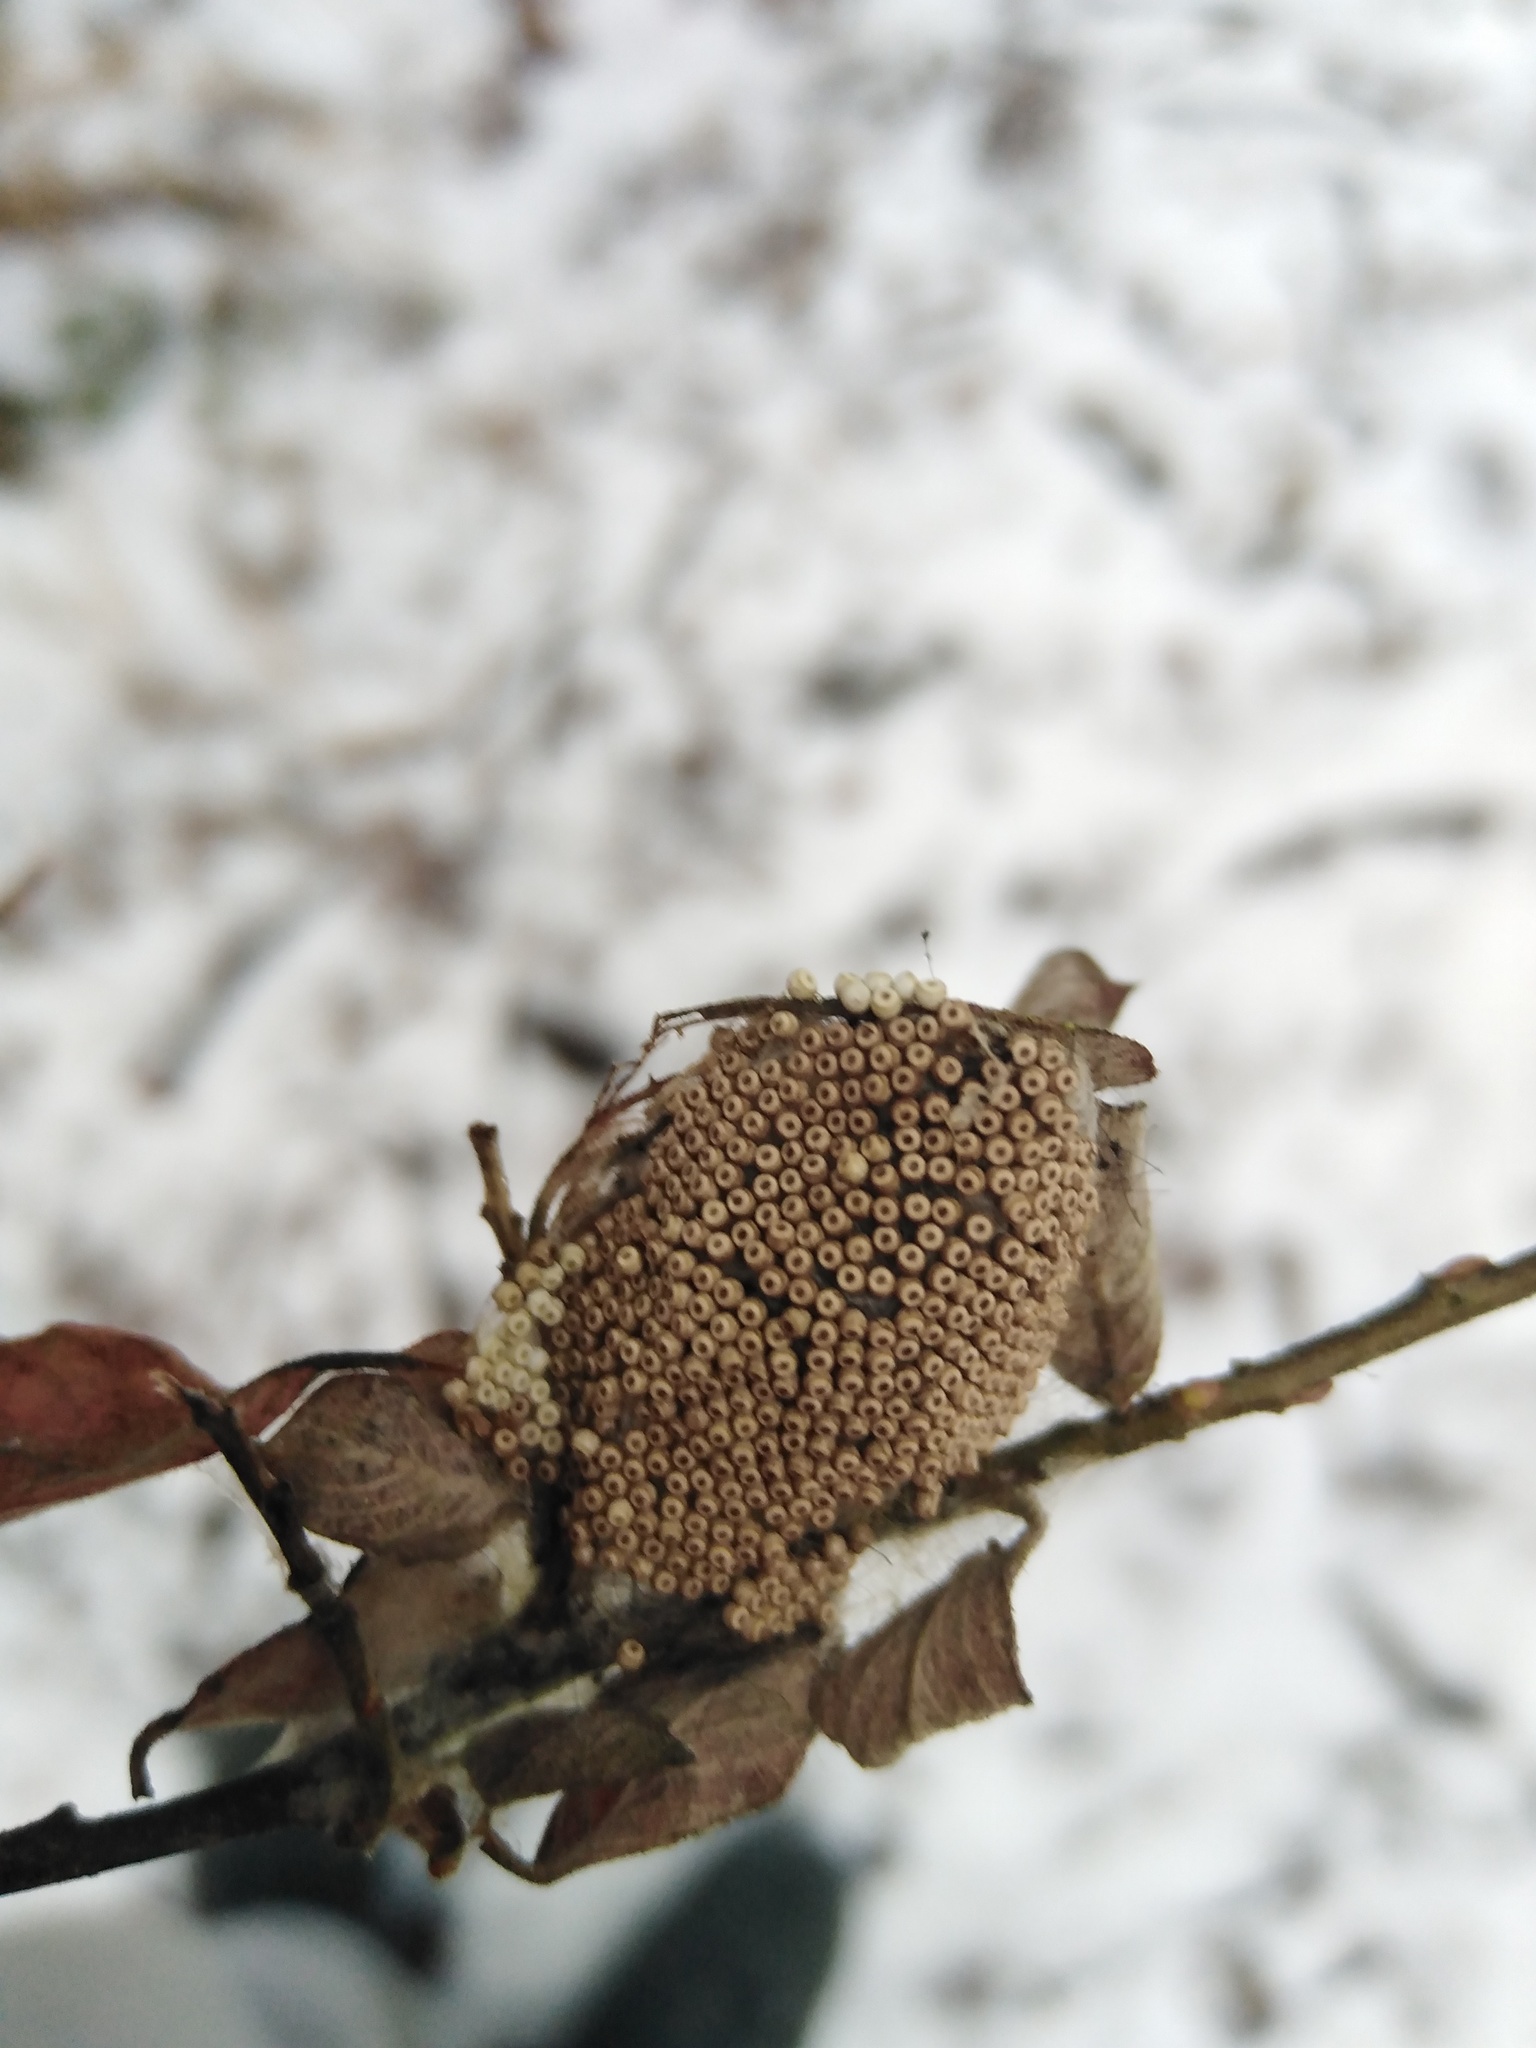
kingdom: Animalia
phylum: Arthropoda
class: Insecta
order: Lepidoptera
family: Erebidae
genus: Orgyia
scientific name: Orgyia antiqua
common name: Vapourer
